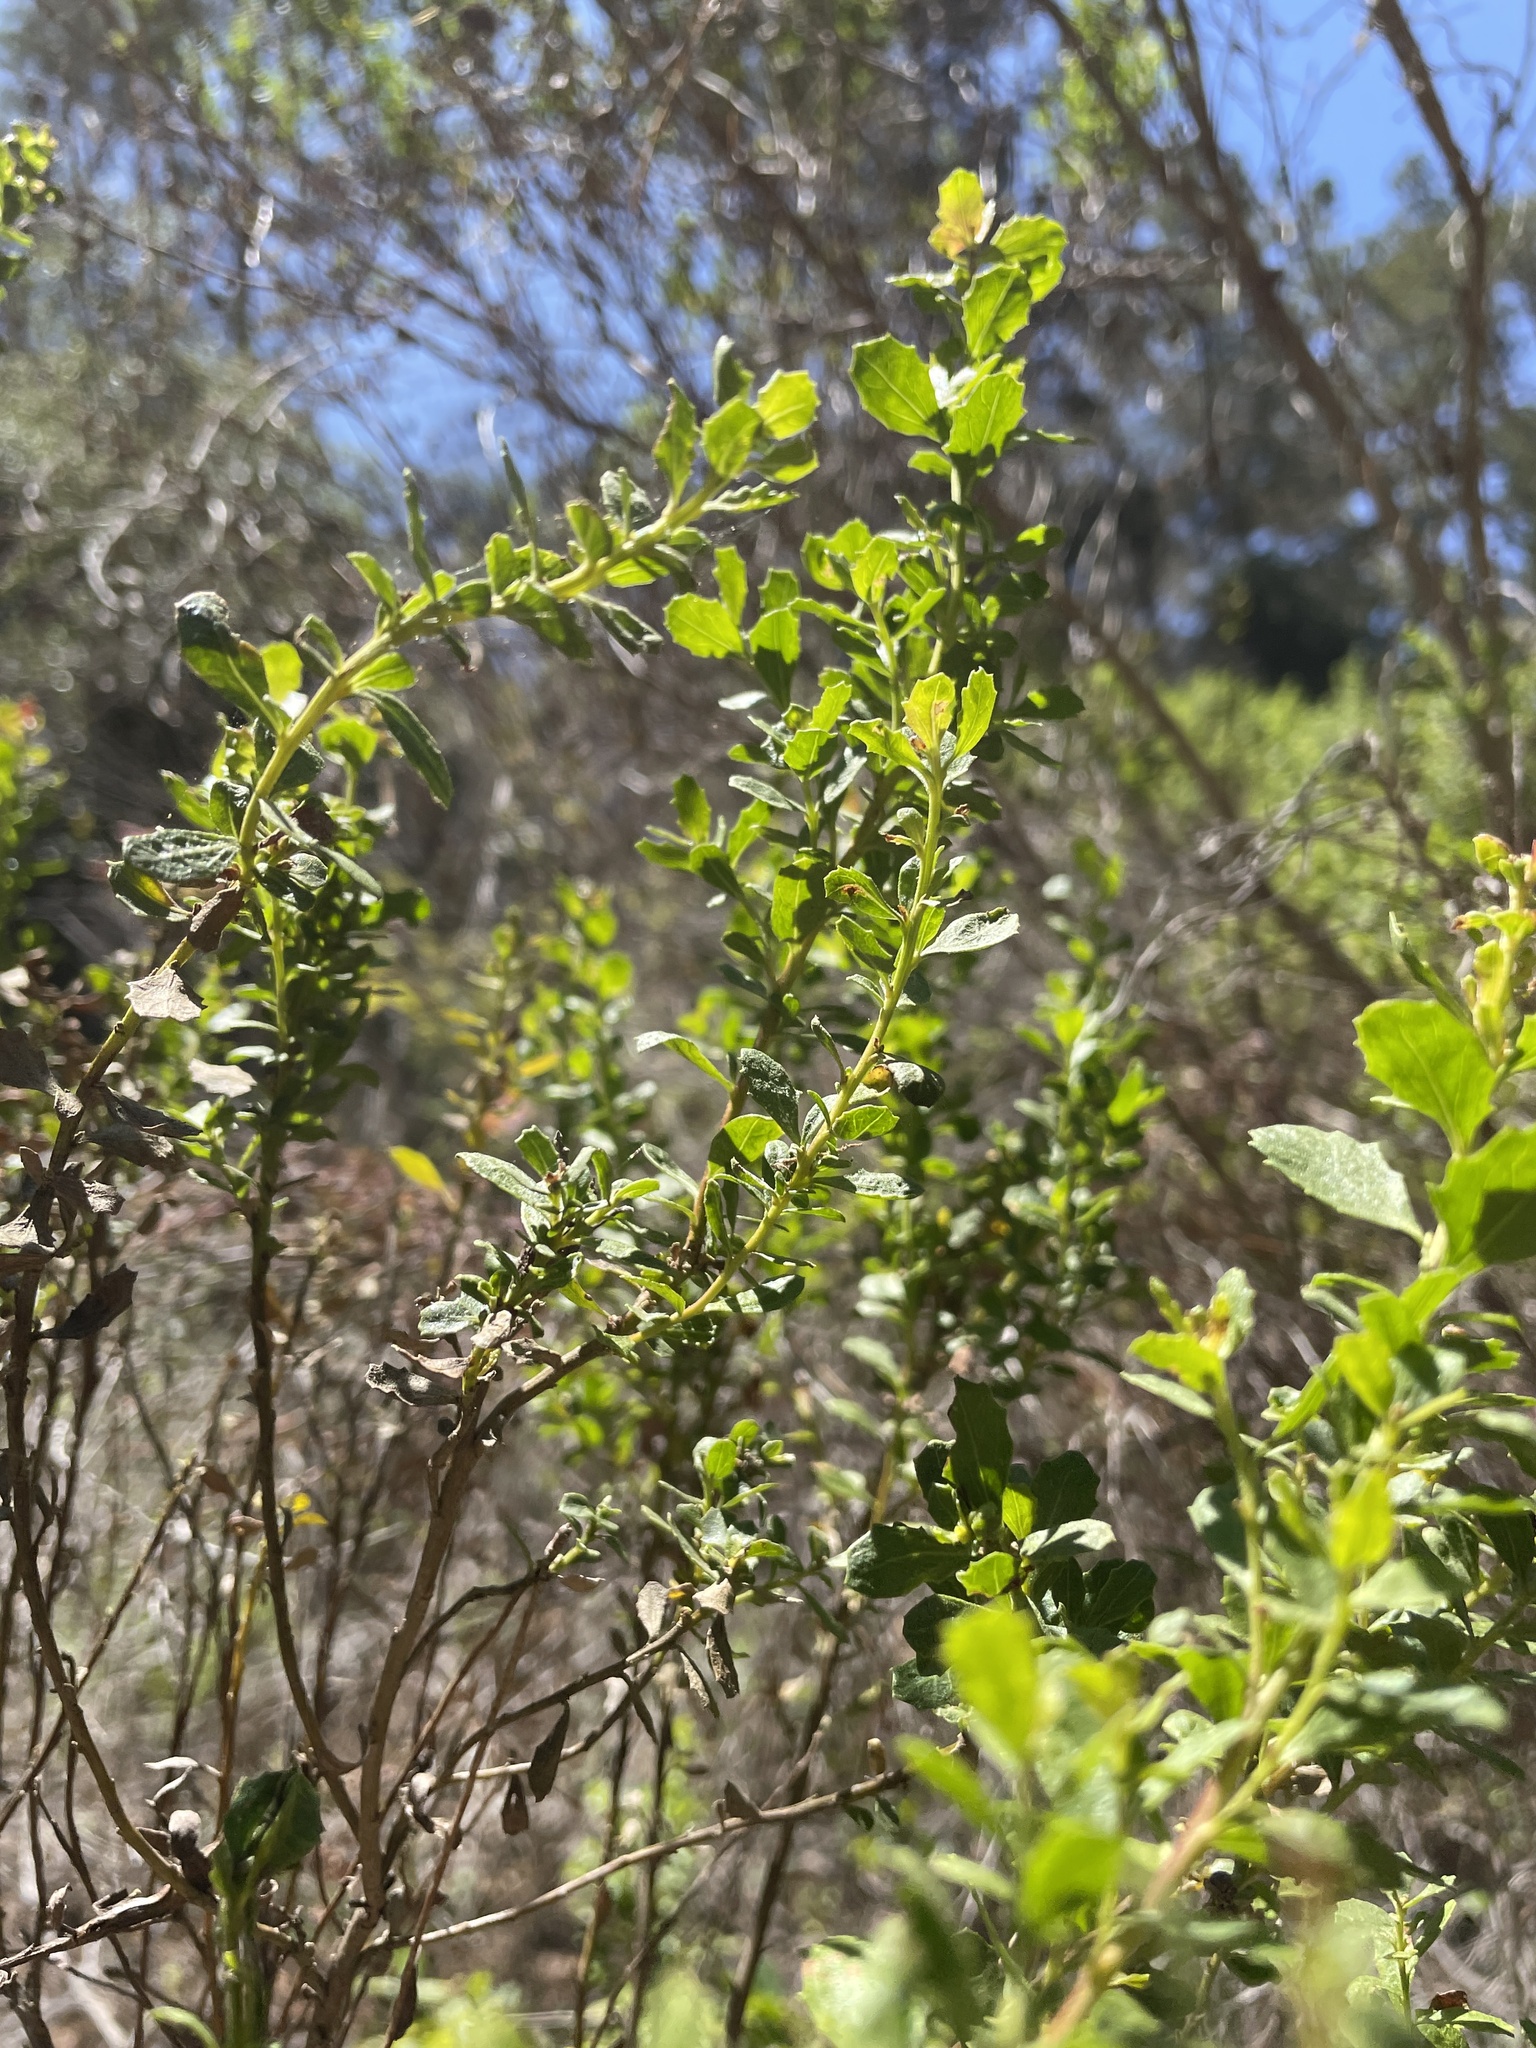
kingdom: Plantae
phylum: Tracheophyta
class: Magnoliopsida
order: Asterales
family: Asteraceae
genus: Baccharis
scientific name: Baccharis pilularis
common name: Coyotebrush
